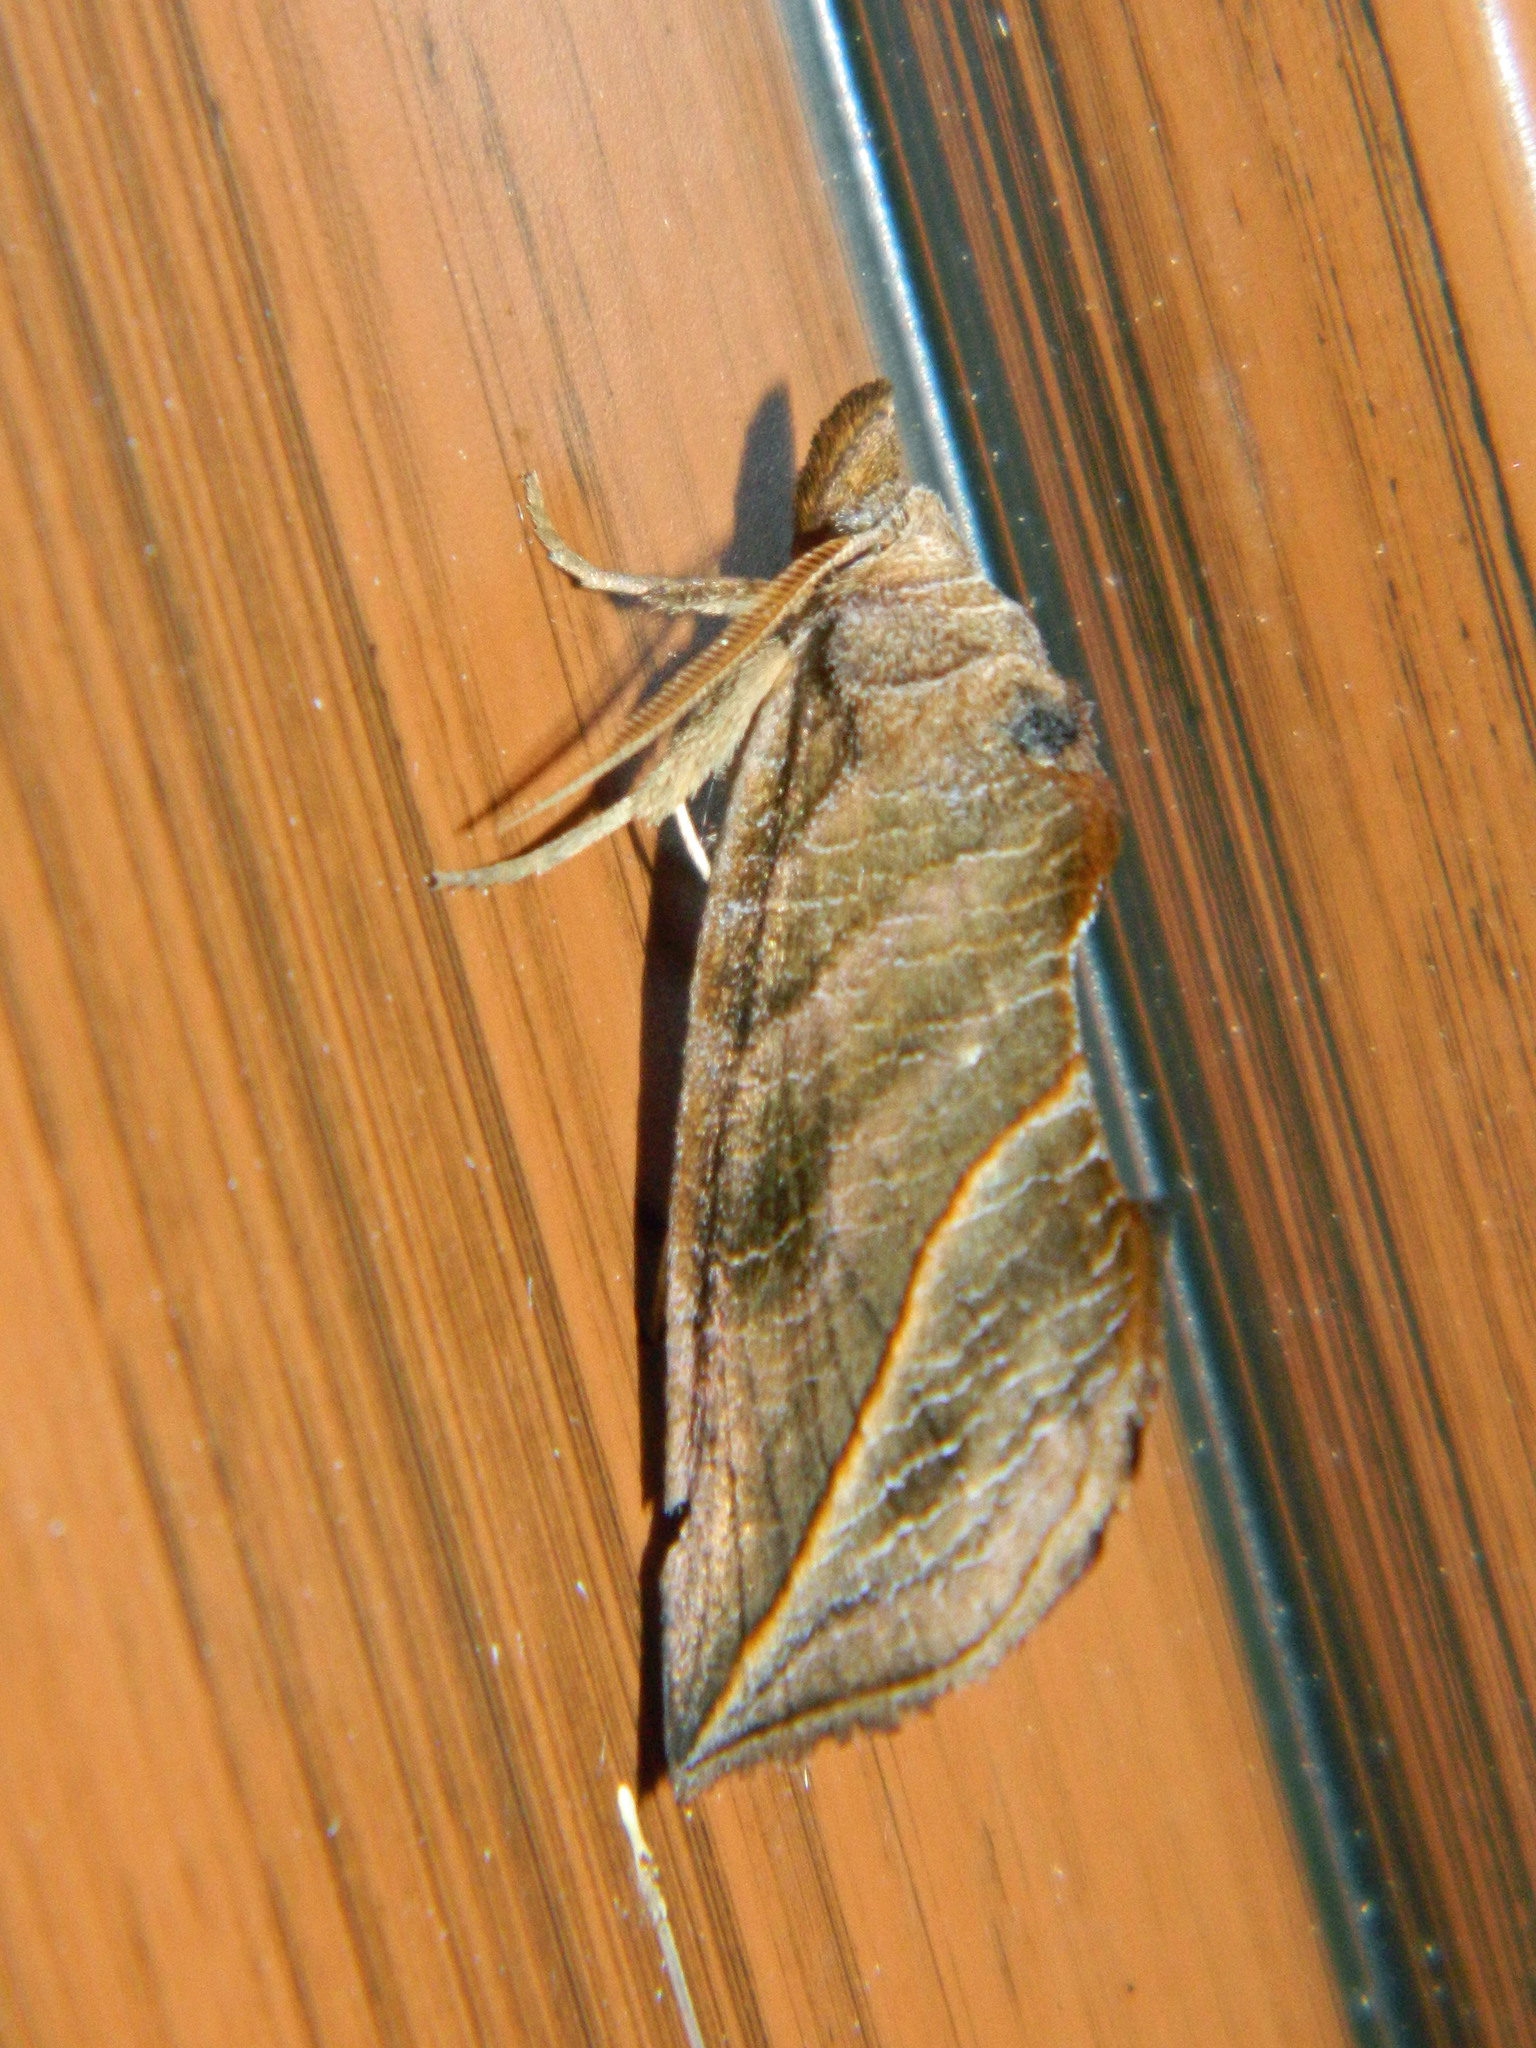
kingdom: Animalia
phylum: Arthropoda
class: Insecta
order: Lepidoptera
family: Erebidae
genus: Calyptra
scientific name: Calyptra canadensis
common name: Canadian owlet
